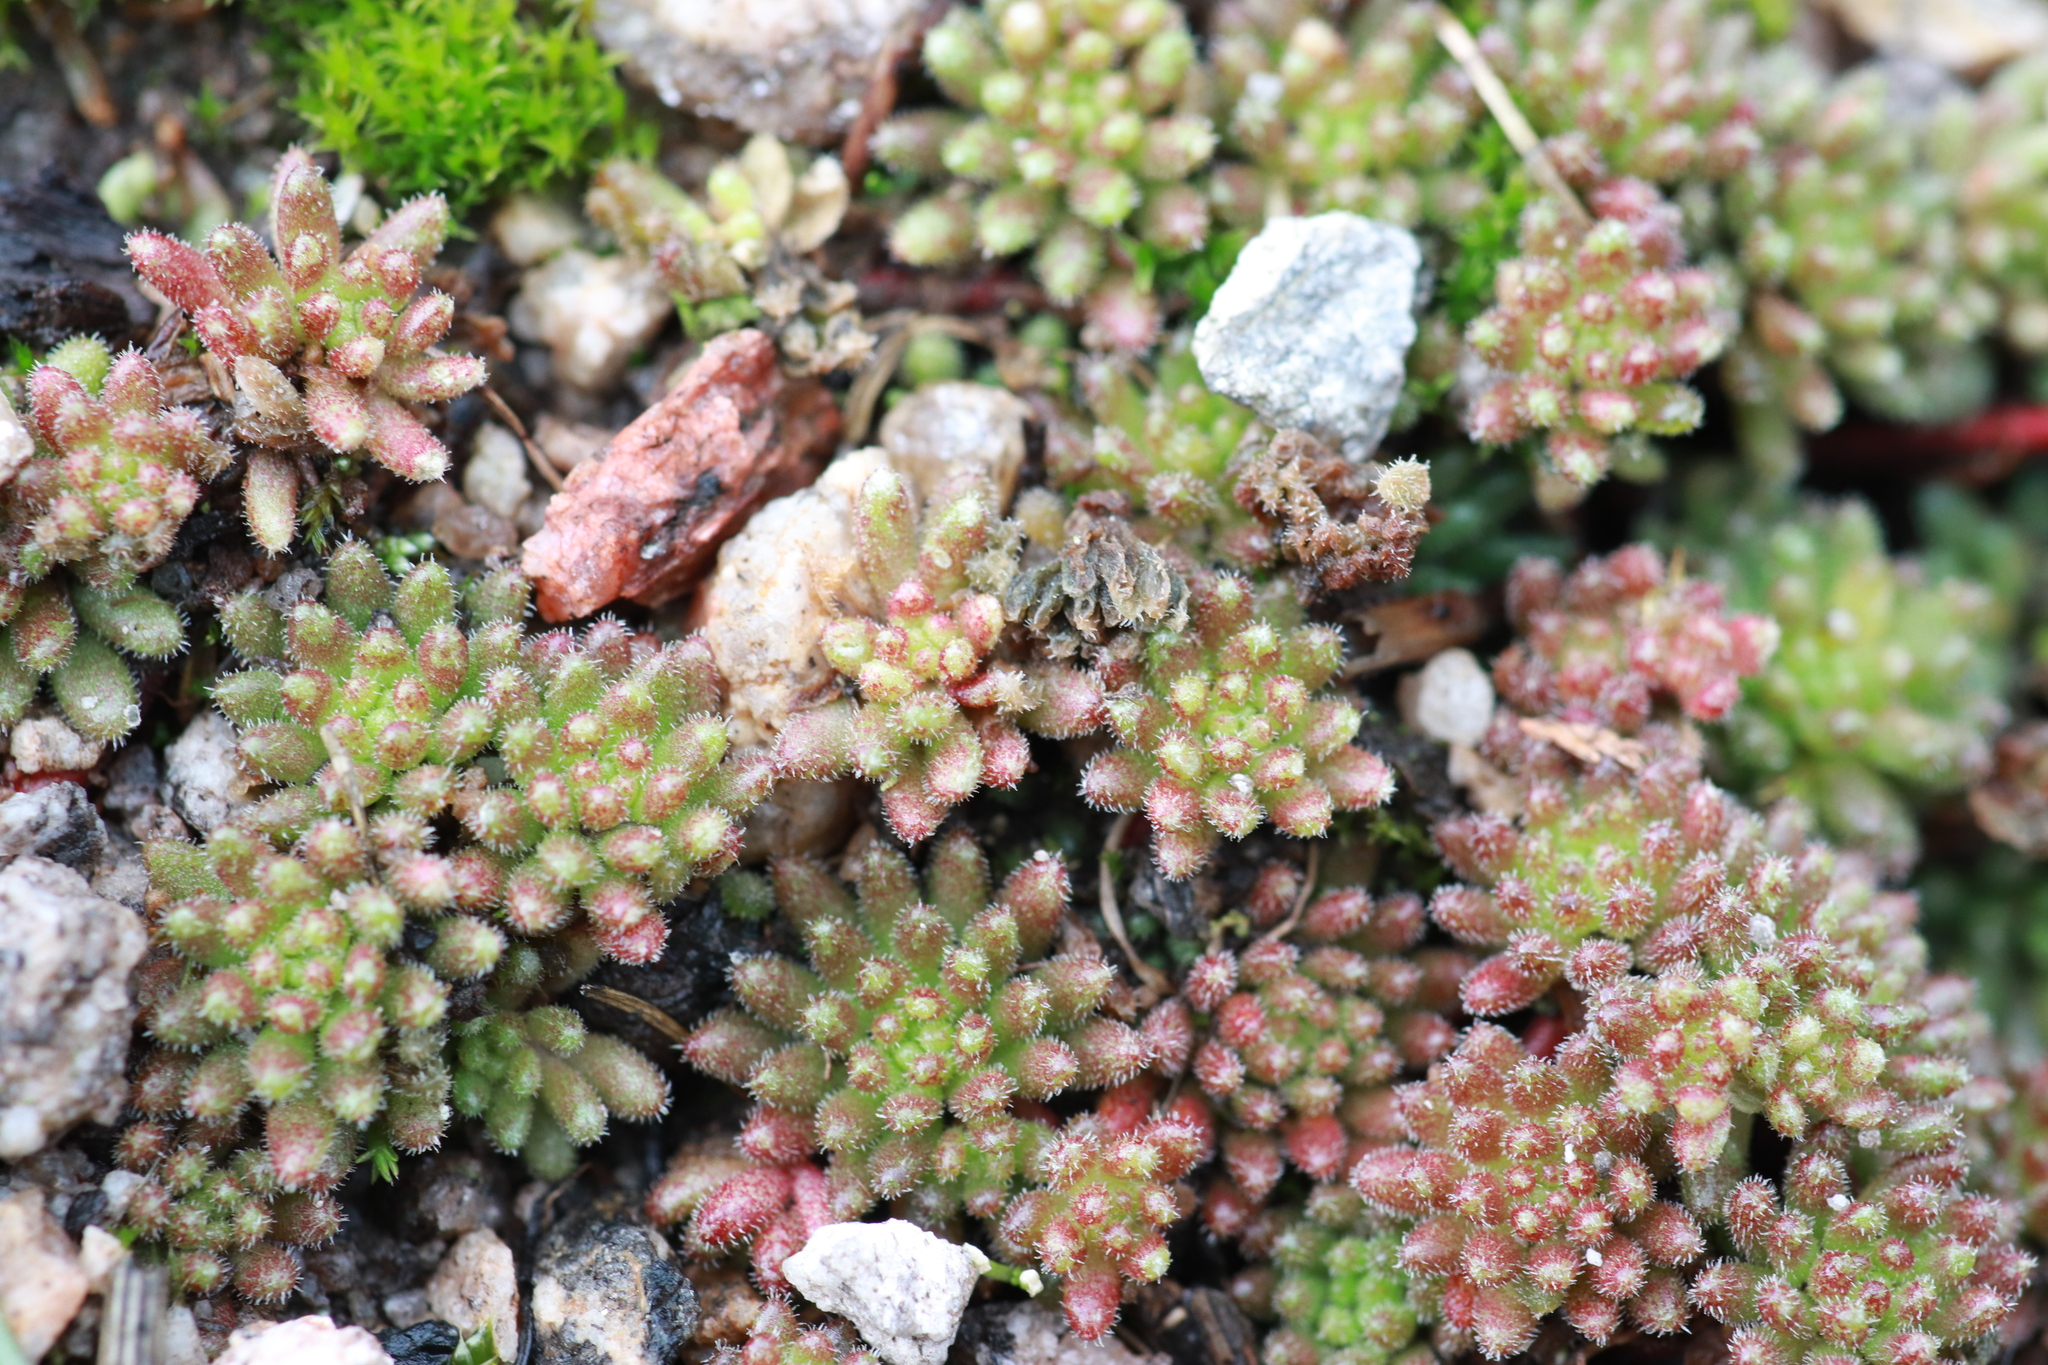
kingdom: Plantae
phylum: Tracheophyta
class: Magnoliopsida
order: Saxifragales
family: Crassulaceae
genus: Sedum
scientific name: Sedum hirsutum
